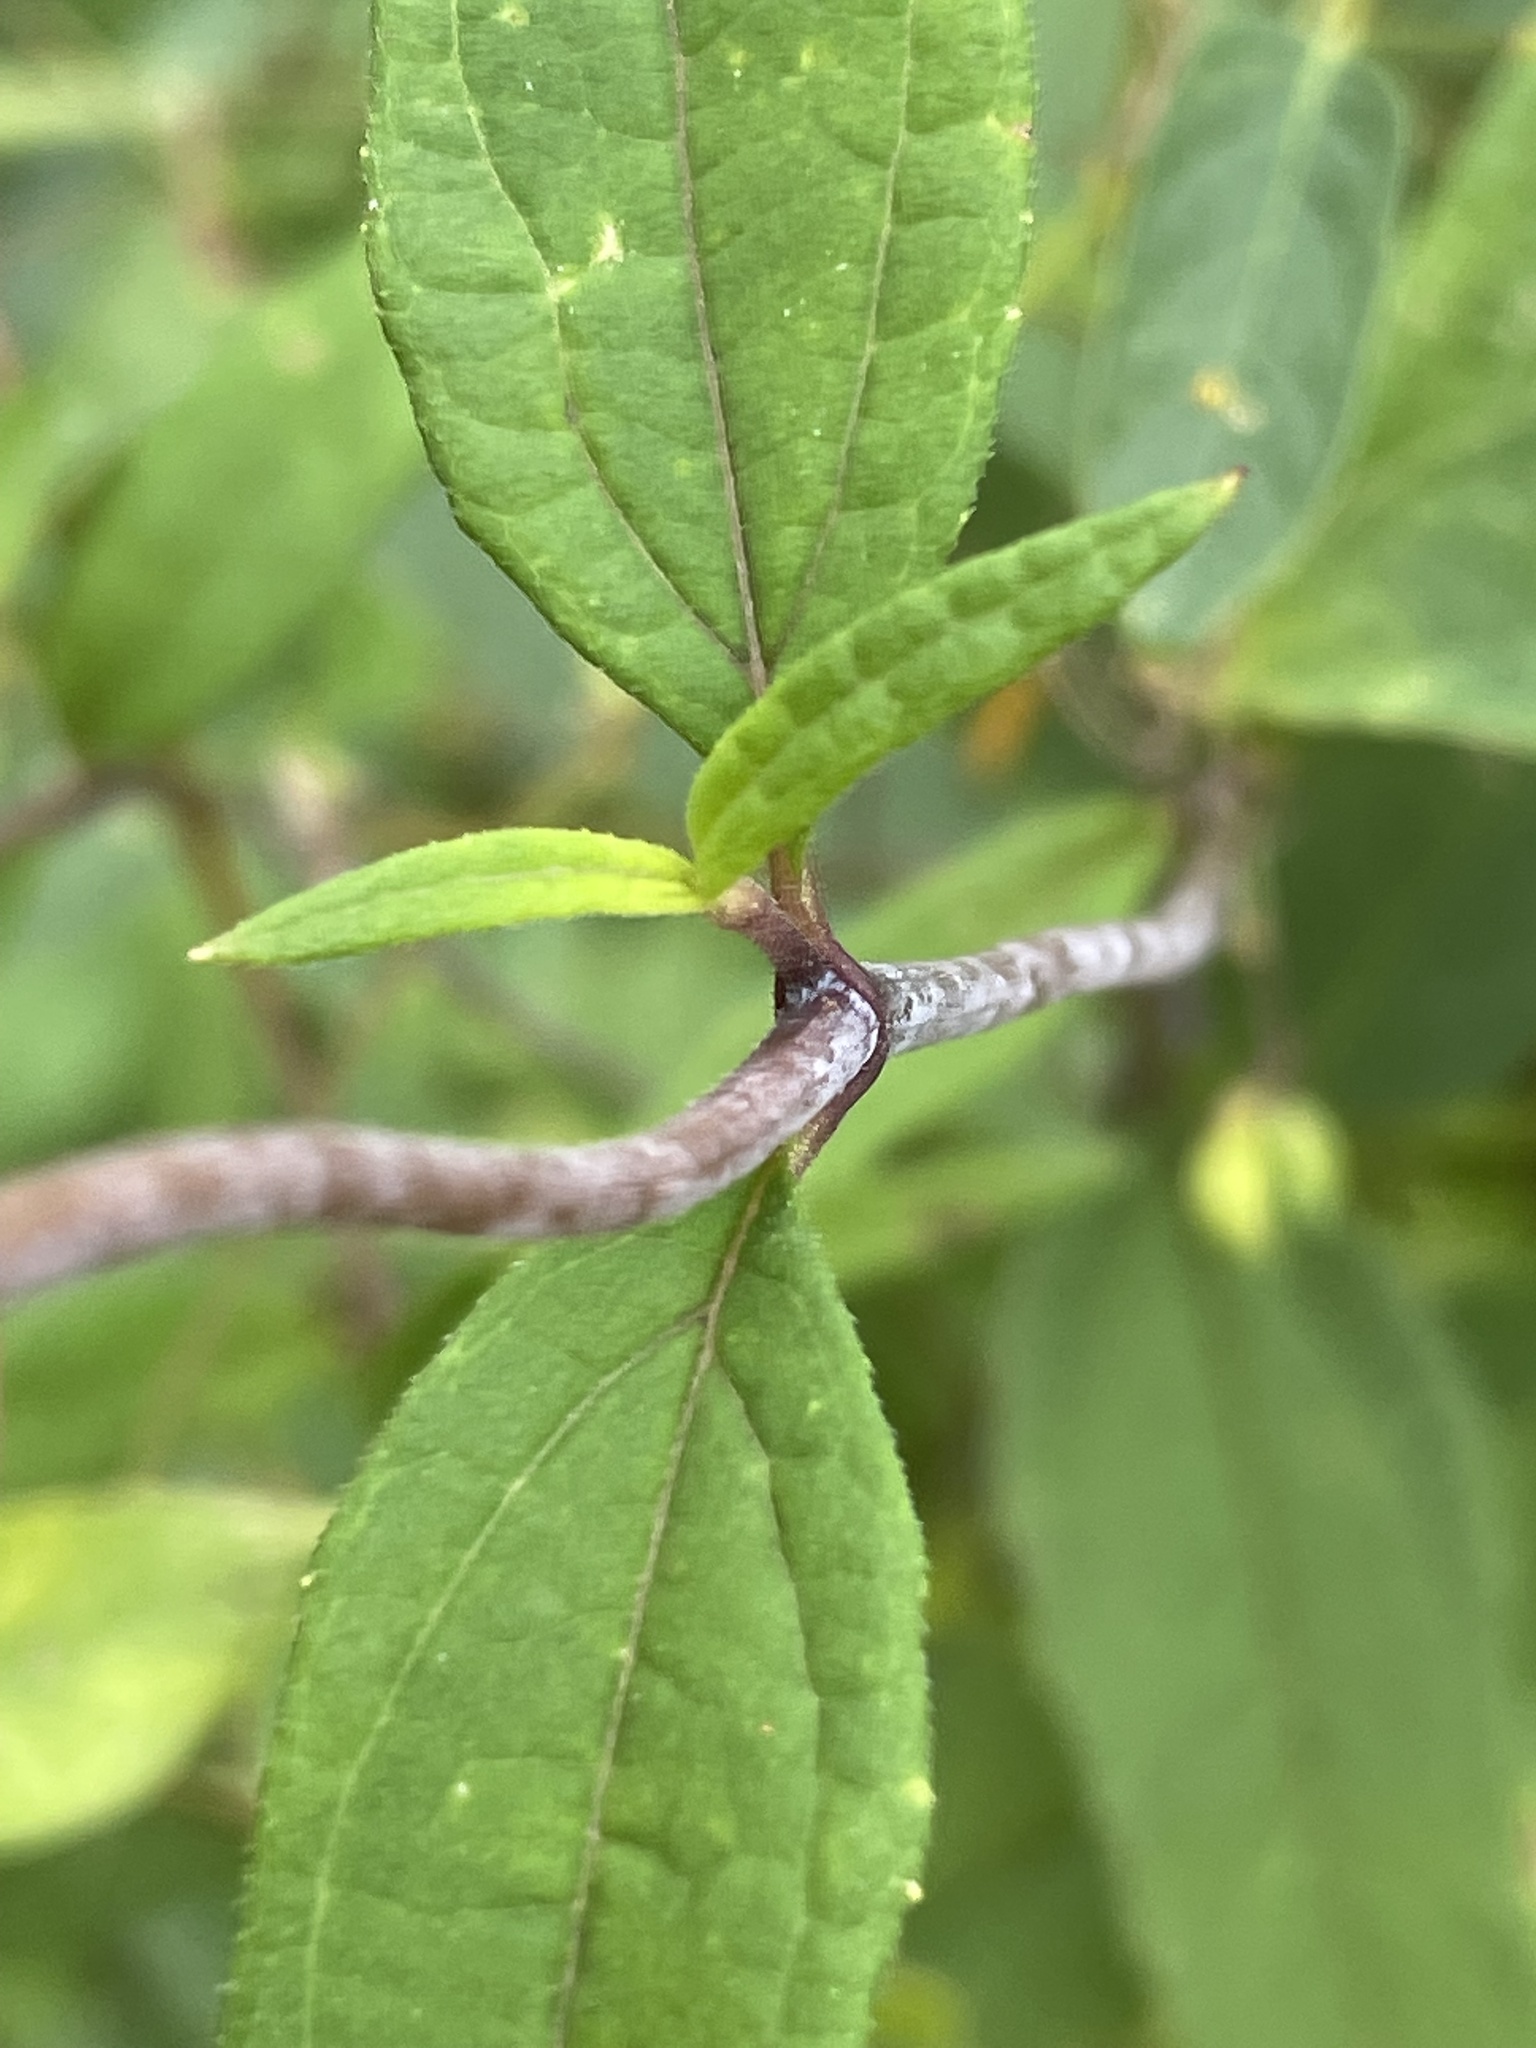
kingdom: Plantae
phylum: Tracheophyta
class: Magnoliopsida
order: Asterales
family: Asteraceae
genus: Helianthus
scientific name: Helianthus microcephalus
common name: Woodland sunflower
